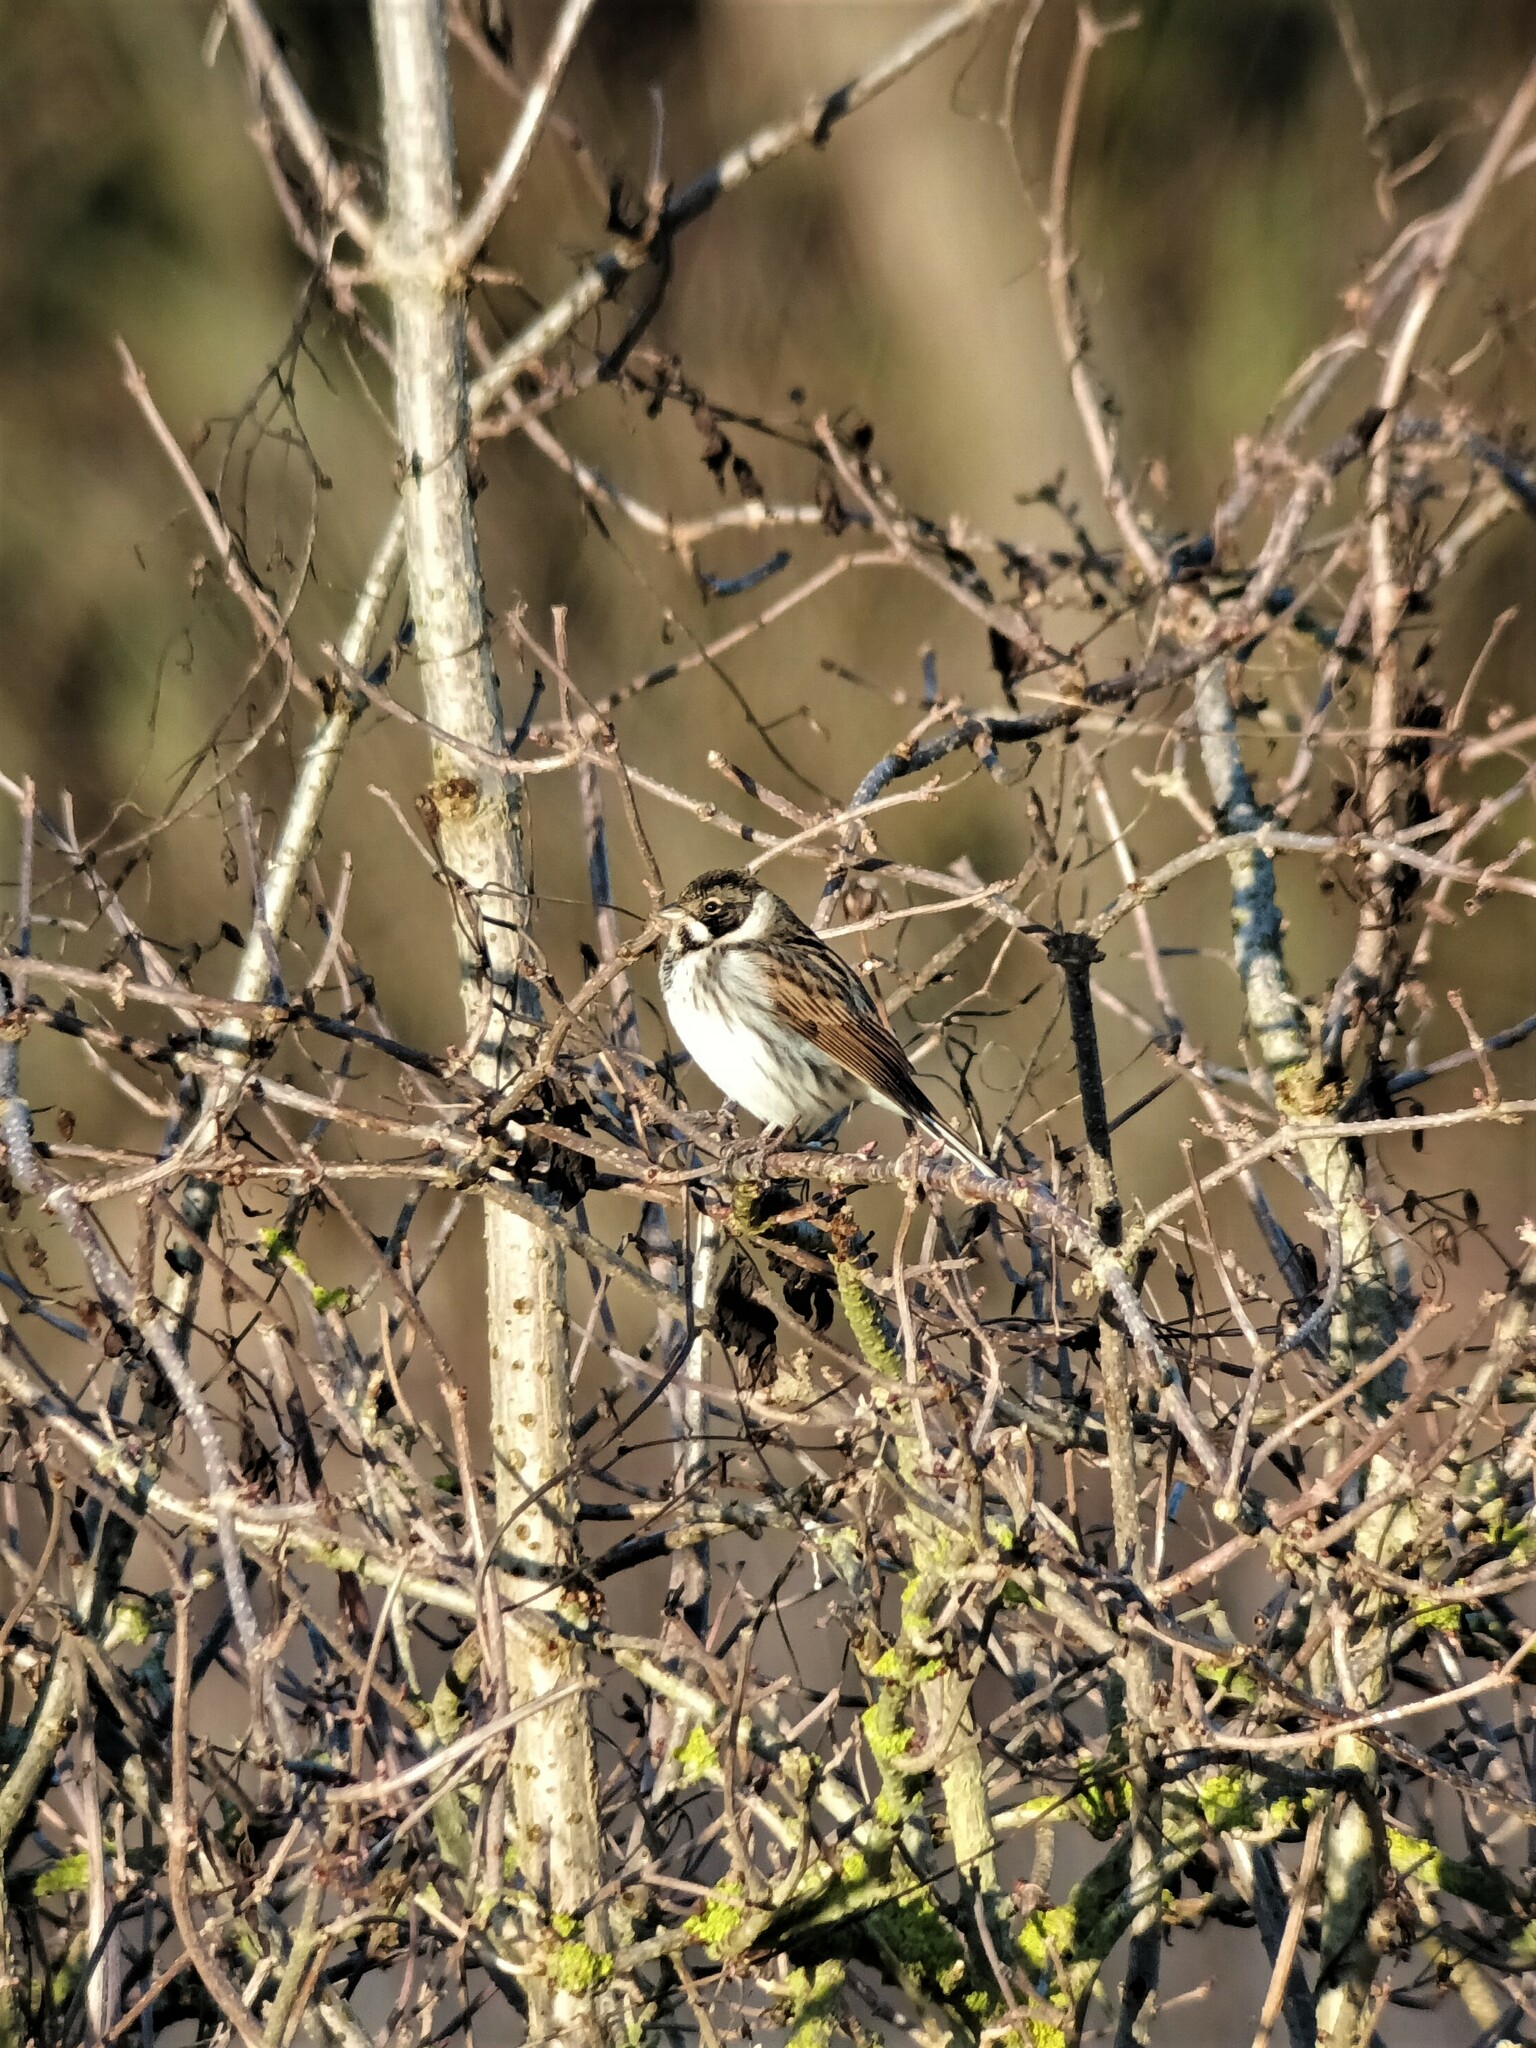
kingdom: Animalia
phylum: Chordata
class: Aves
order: Passeriformes
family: Emberizidae
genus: Emberiza
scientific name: Emberiza schoeniclus
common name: Reed bunting
